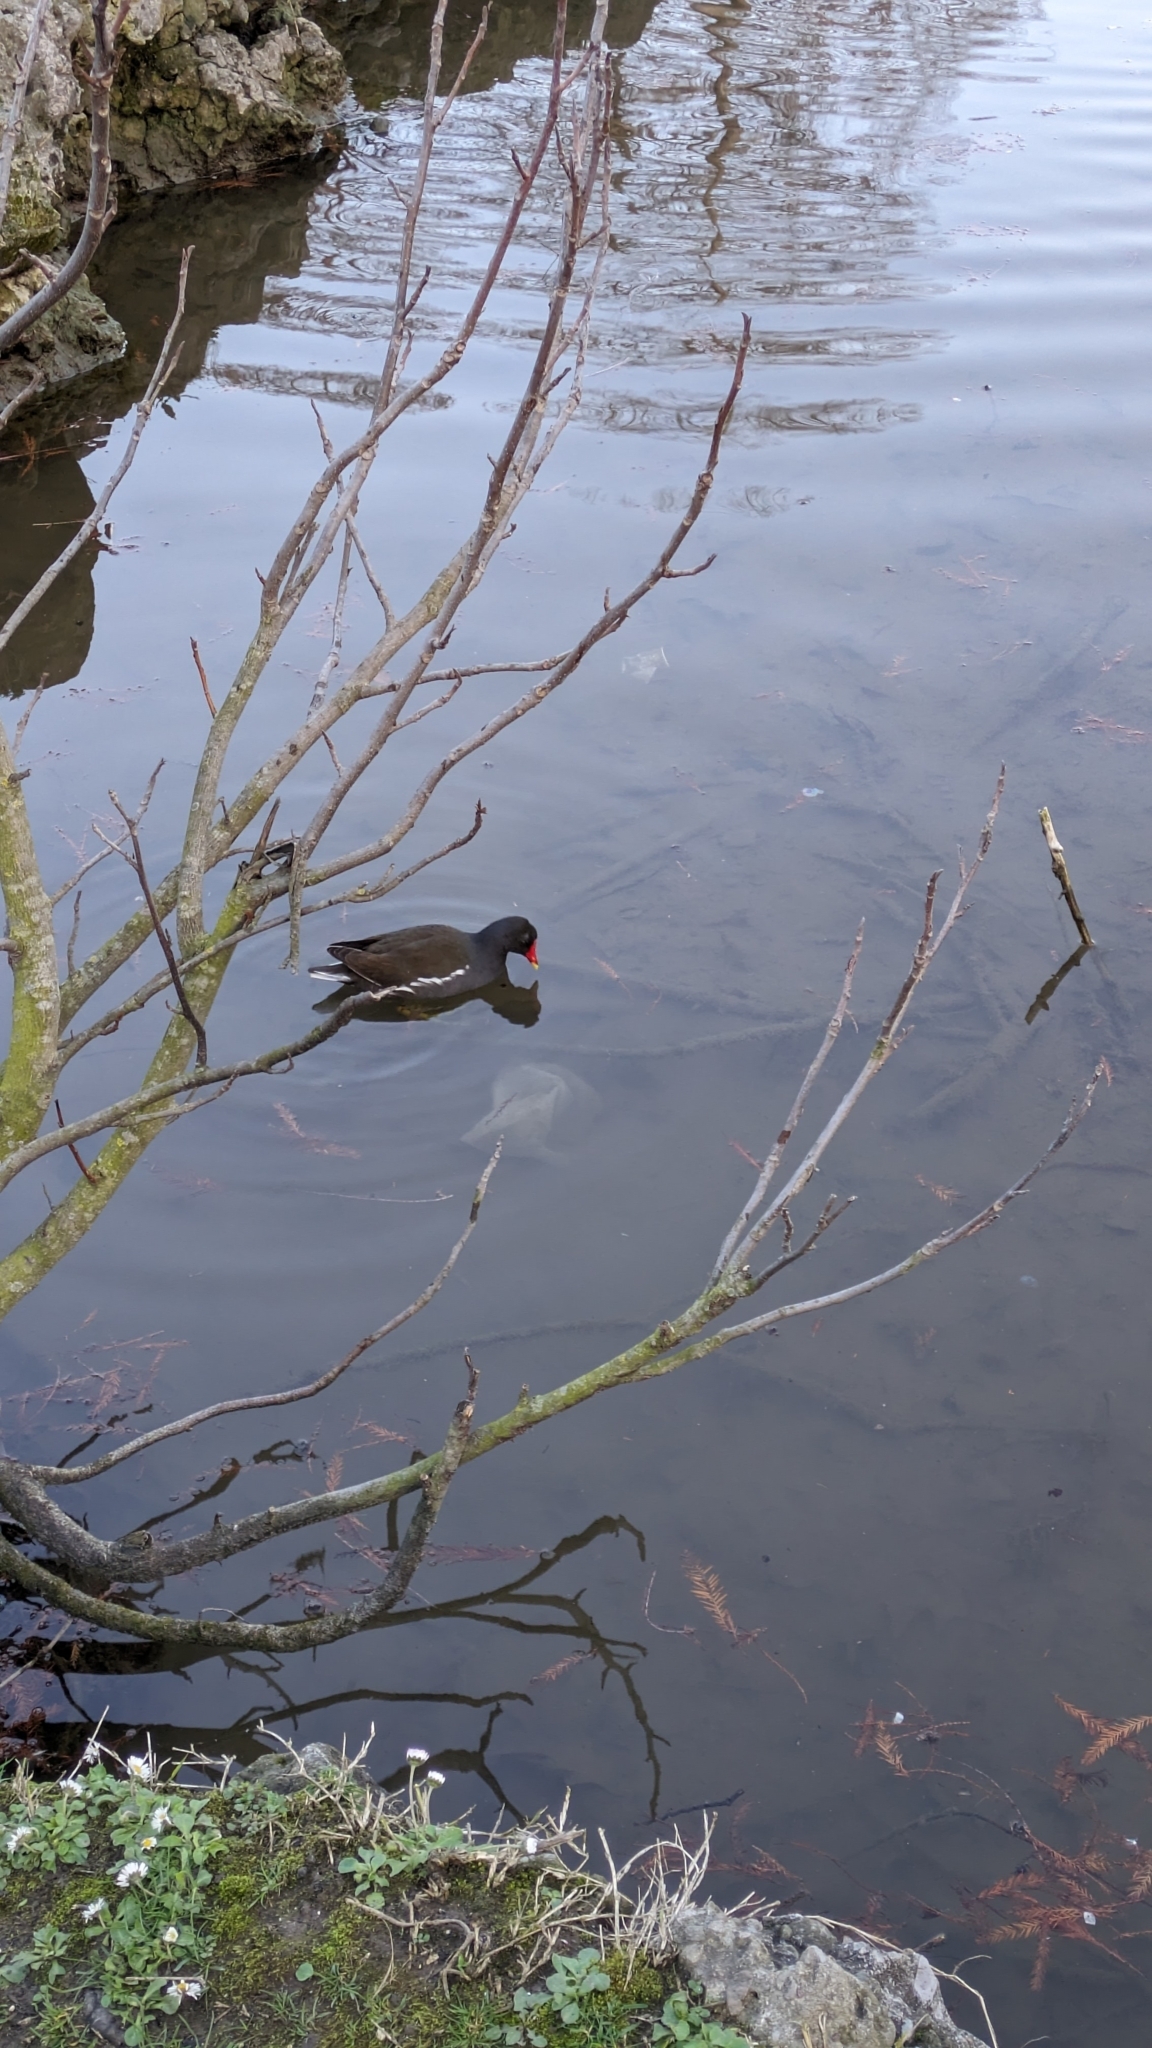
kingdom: Animalia
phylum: Chordata
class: Aves
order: Gruiformes
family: Rallidae
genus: Gallinula
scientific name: Gallinula chloropus
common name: Common moorhen
